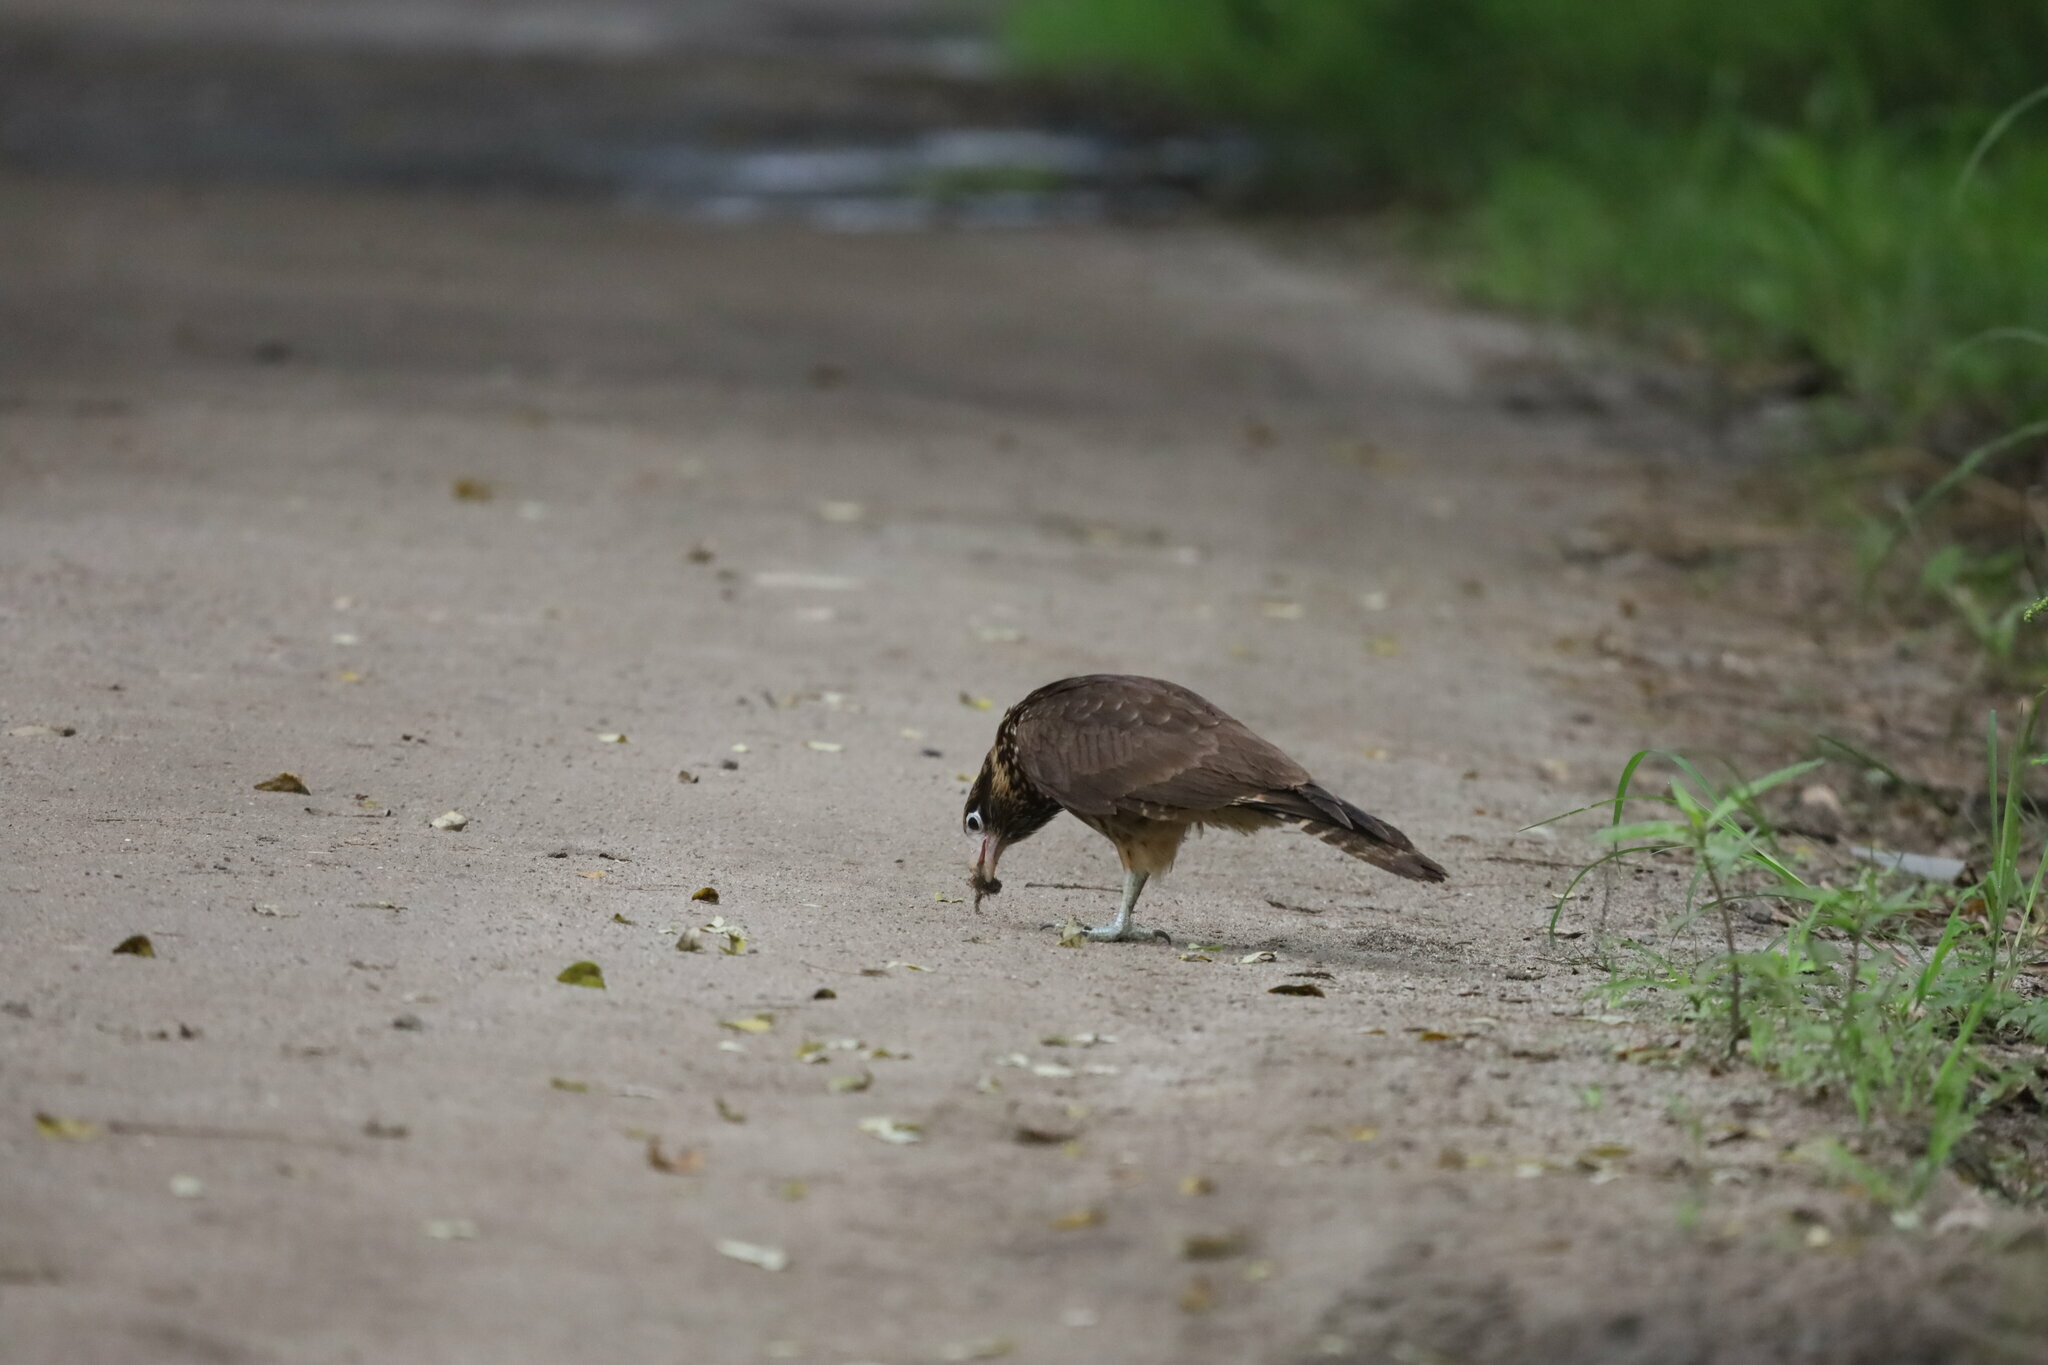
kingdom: Animalia
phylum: Chordata
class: Aves
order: Falconiformes
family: Falconidae
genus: Daptrius
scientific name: Daptrius
